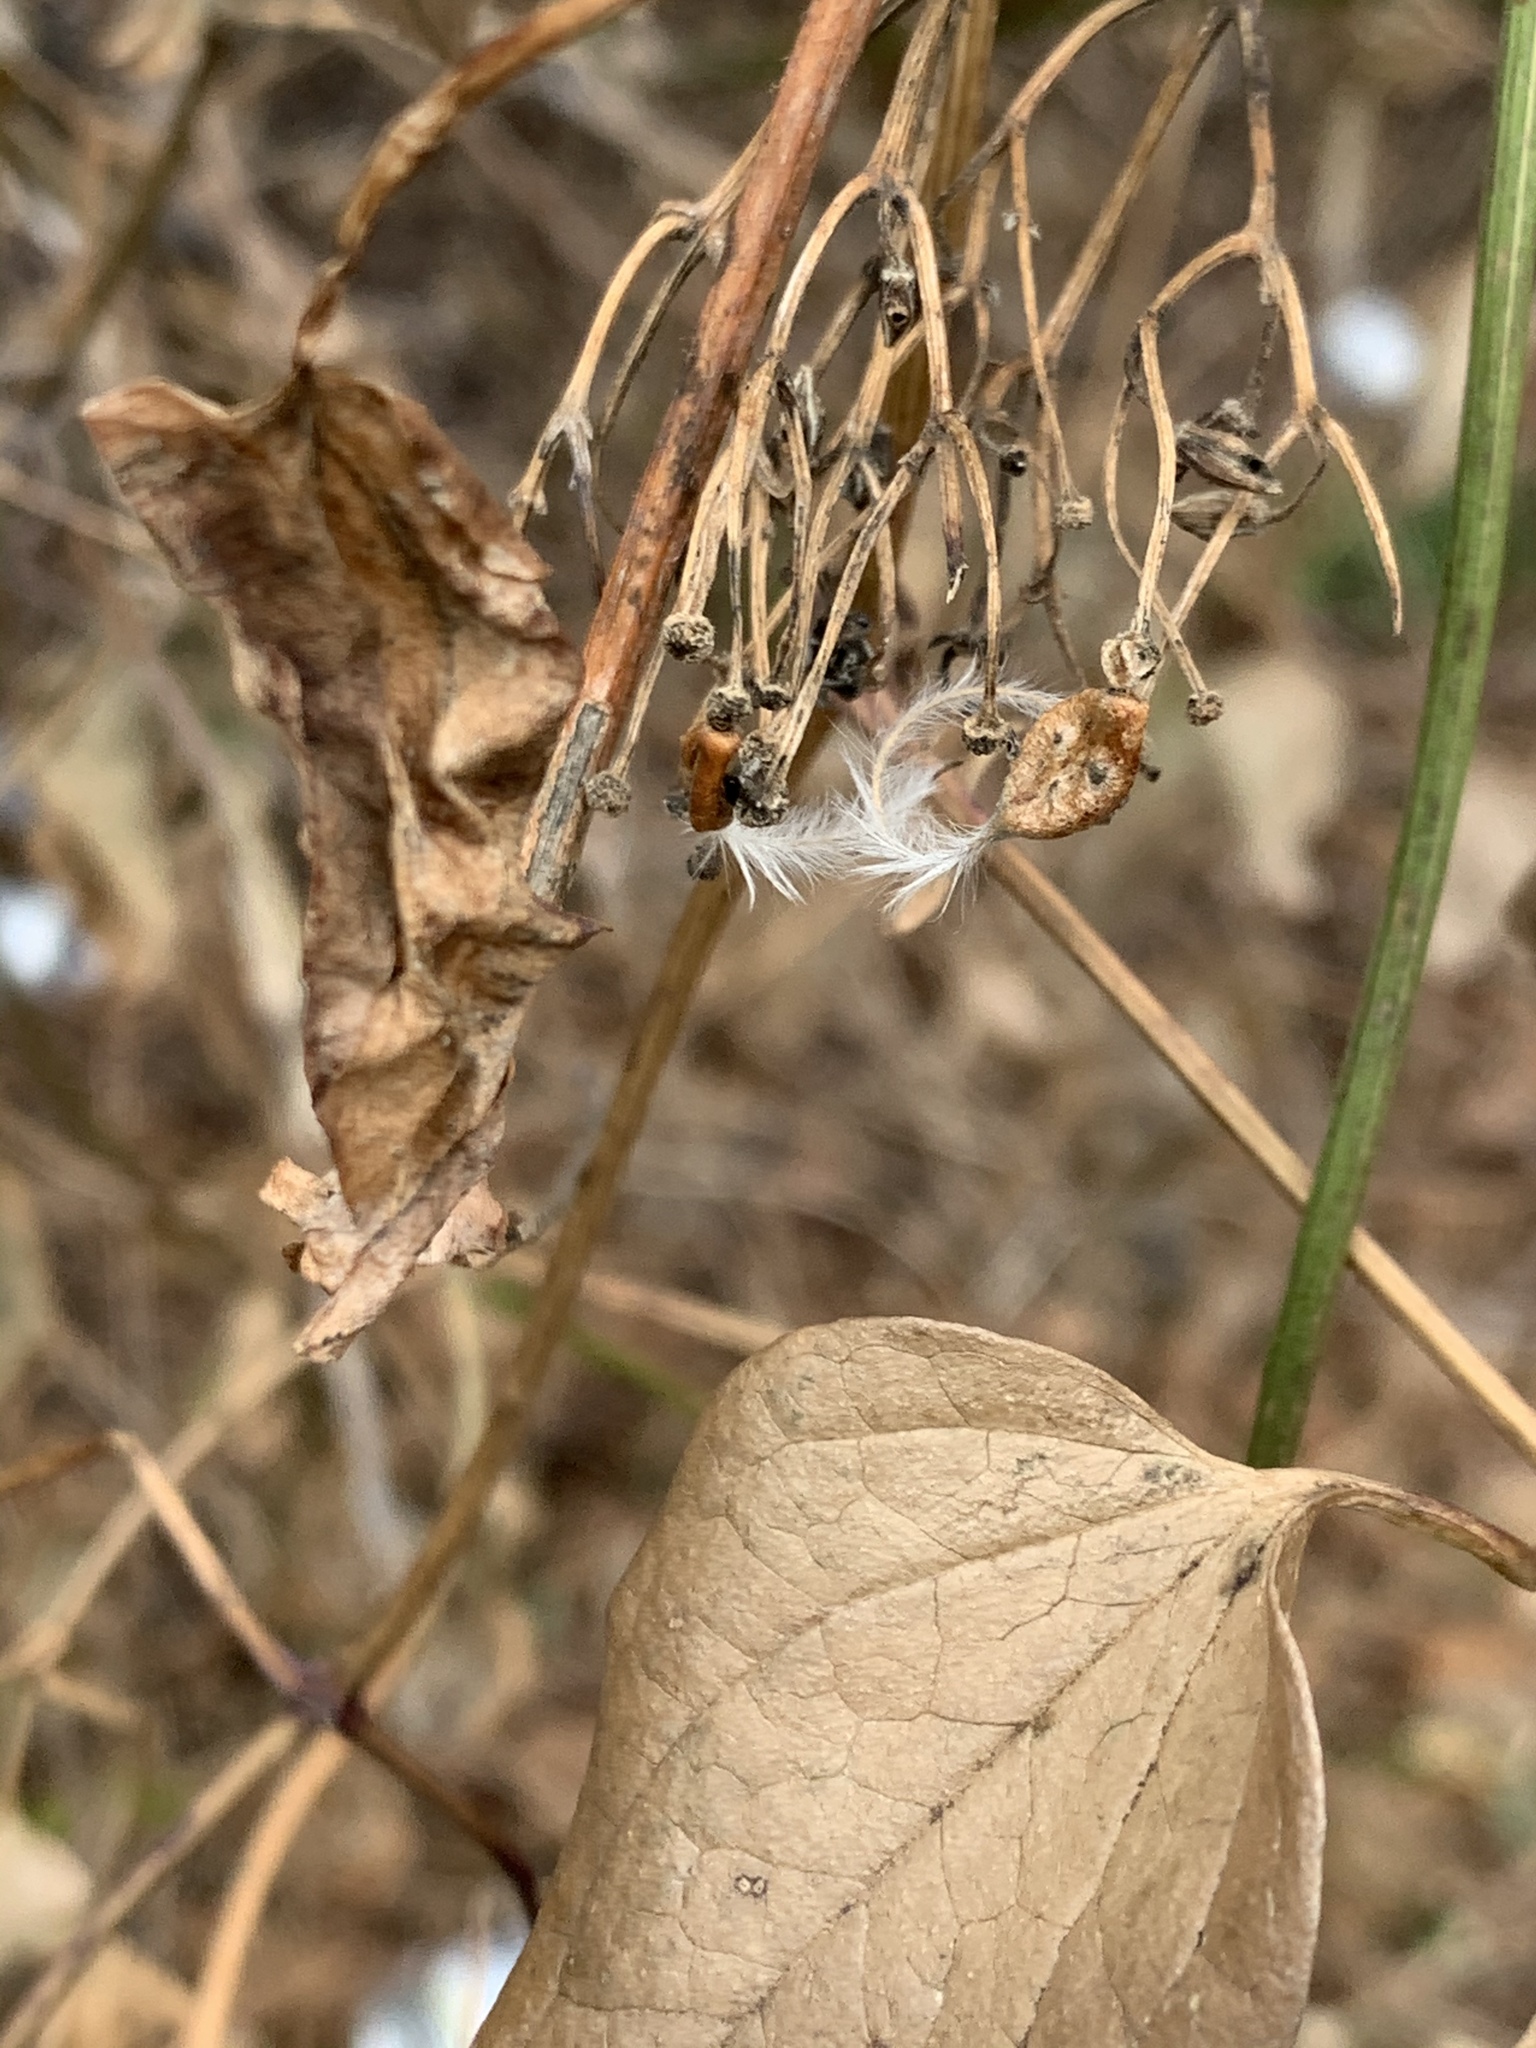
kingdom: Plantae
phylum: Tracheophyta
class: Magnoliopsida
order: Ranunculales
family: Ranunculaceae
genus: Clematis
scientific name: Clematis terniflora
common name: Sweet autumn clematis
